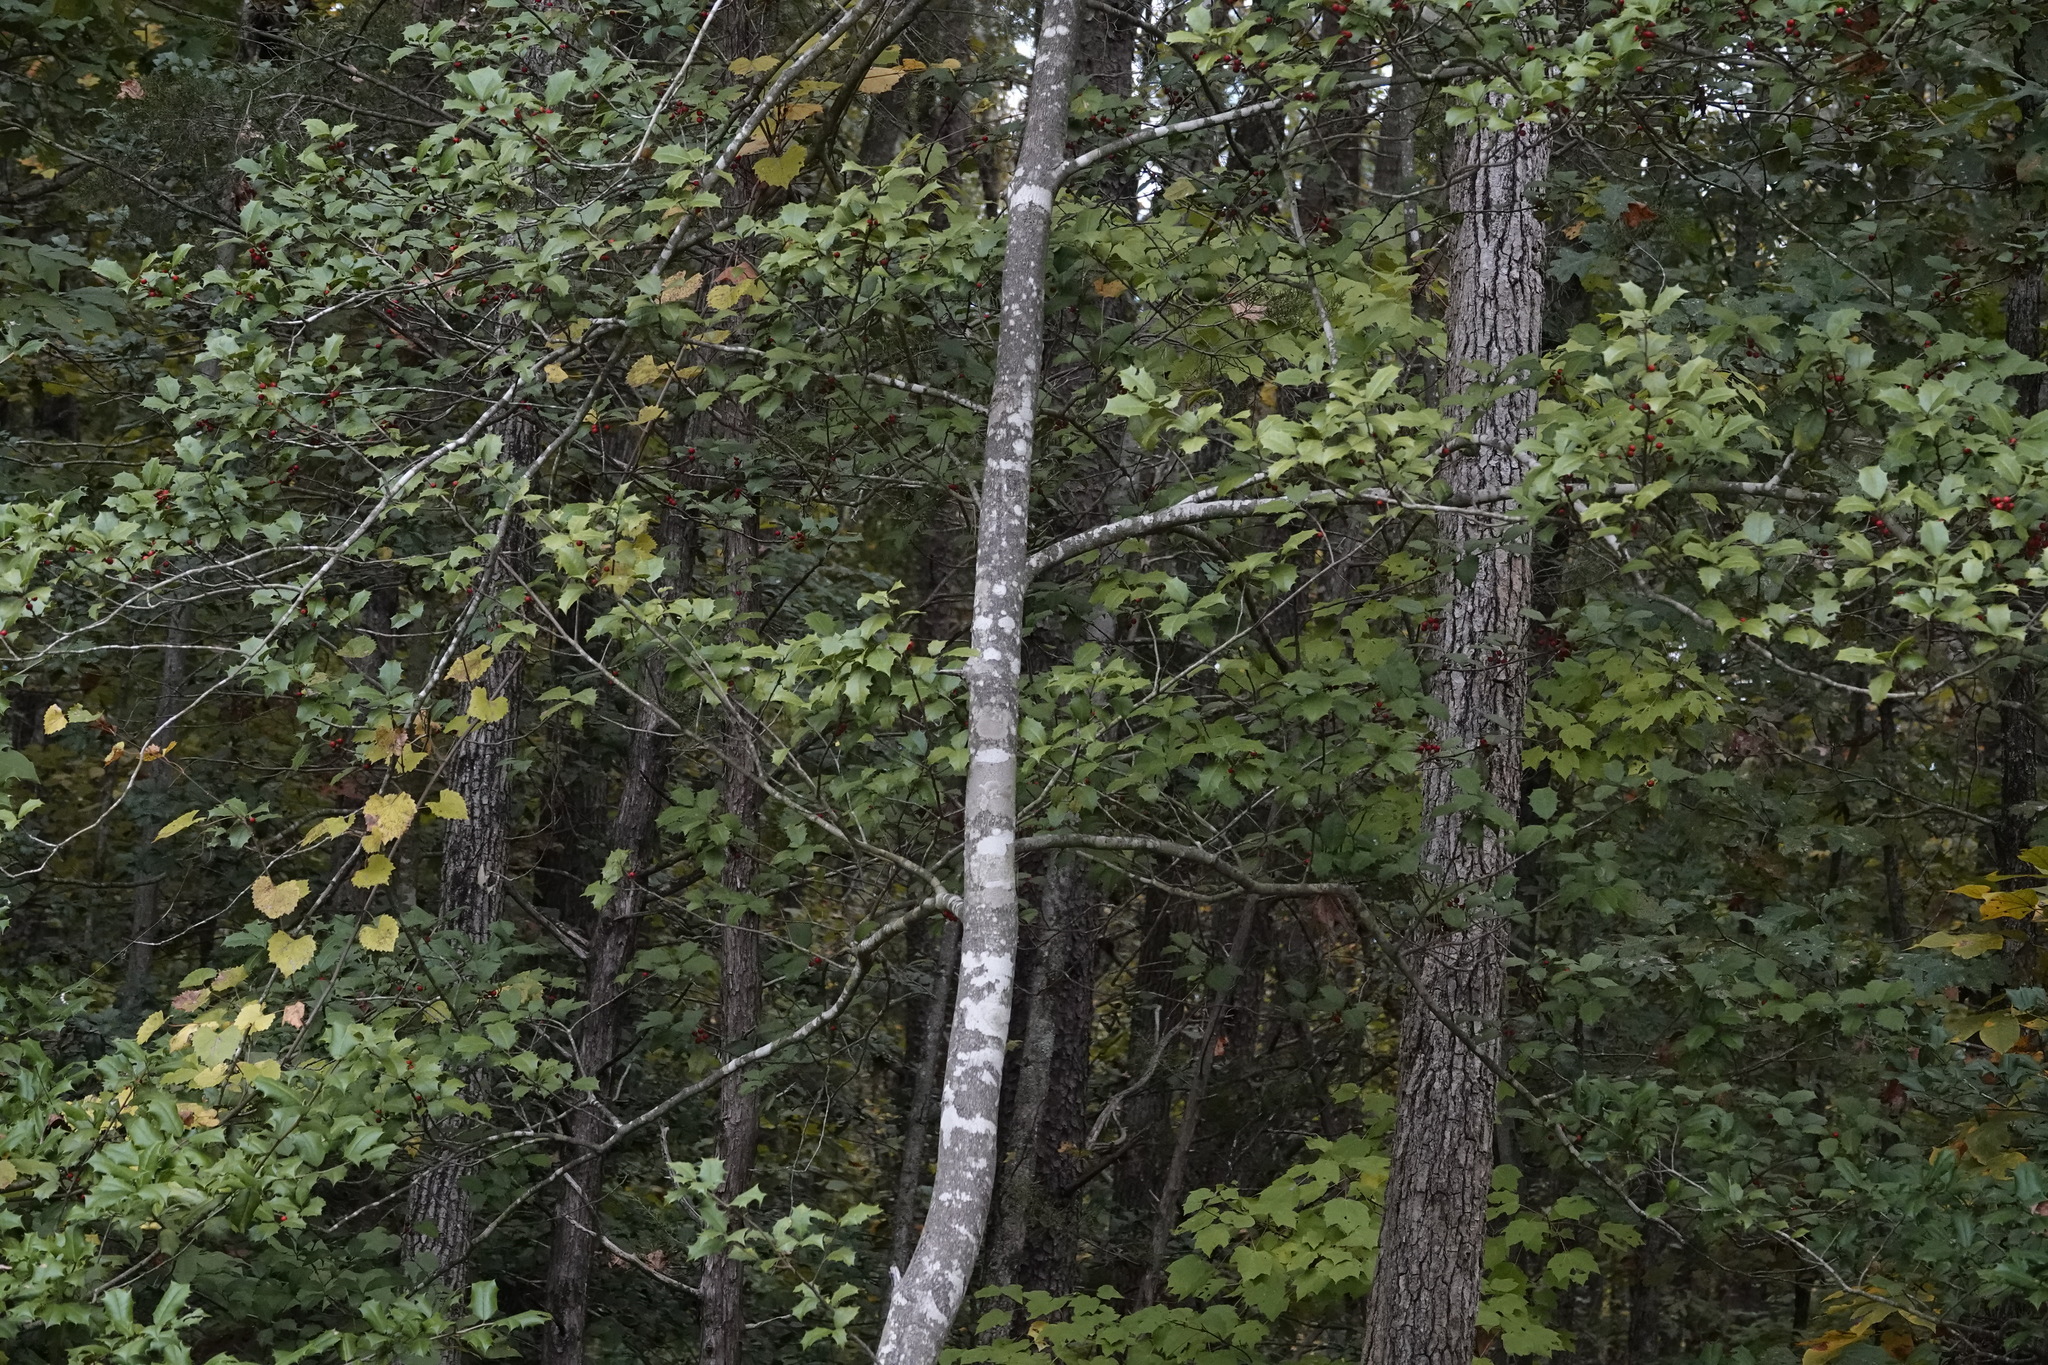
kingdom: Plantae
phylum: Tracheophyta
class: Magnoliopsida
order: Aquifoliales
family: Aquifoliaceae
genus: Ilex
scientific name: Ilex opaca
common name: American holly
